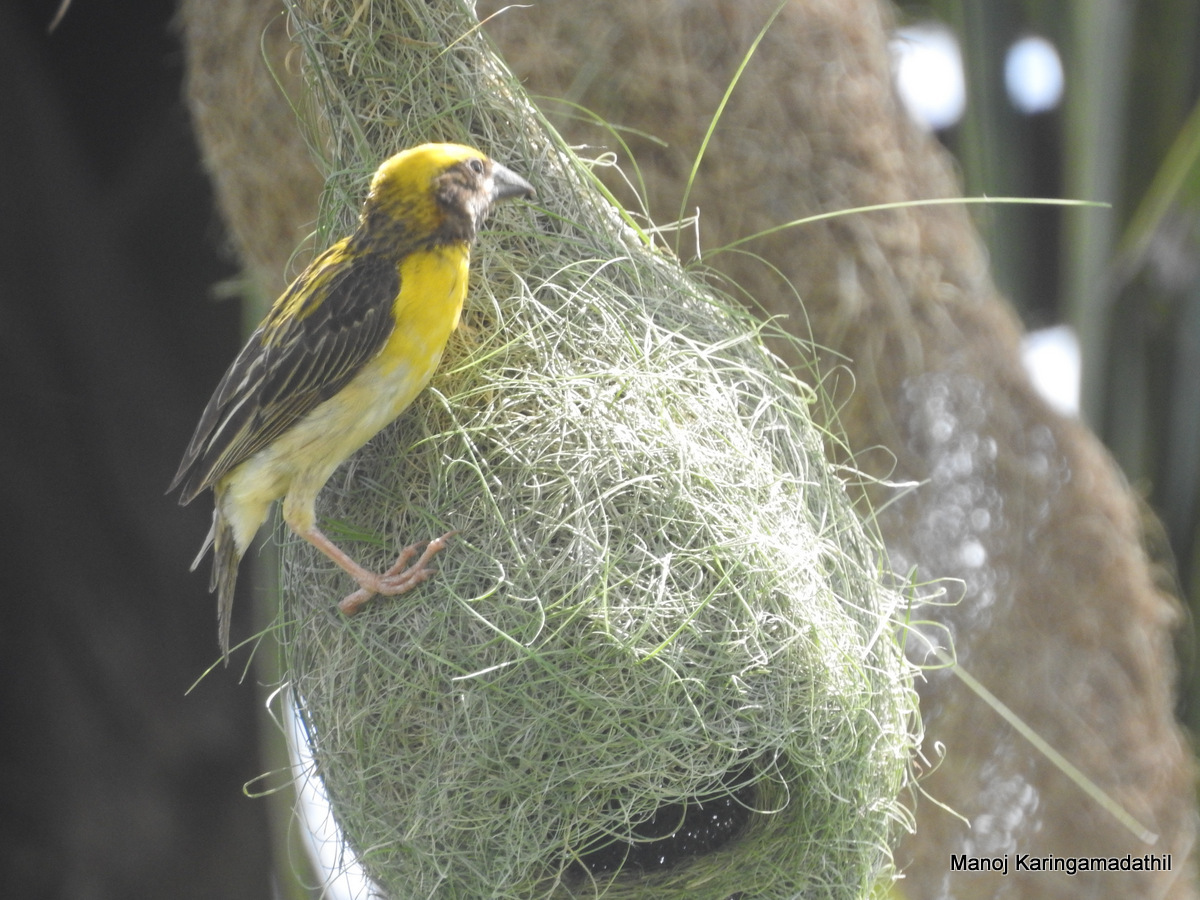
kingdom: Animalia
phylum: Chordata
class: Aves
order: Passeriformes
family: Ploceidae
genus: Ploceus
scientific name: Ploceus philippinus
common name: Baya weaver
